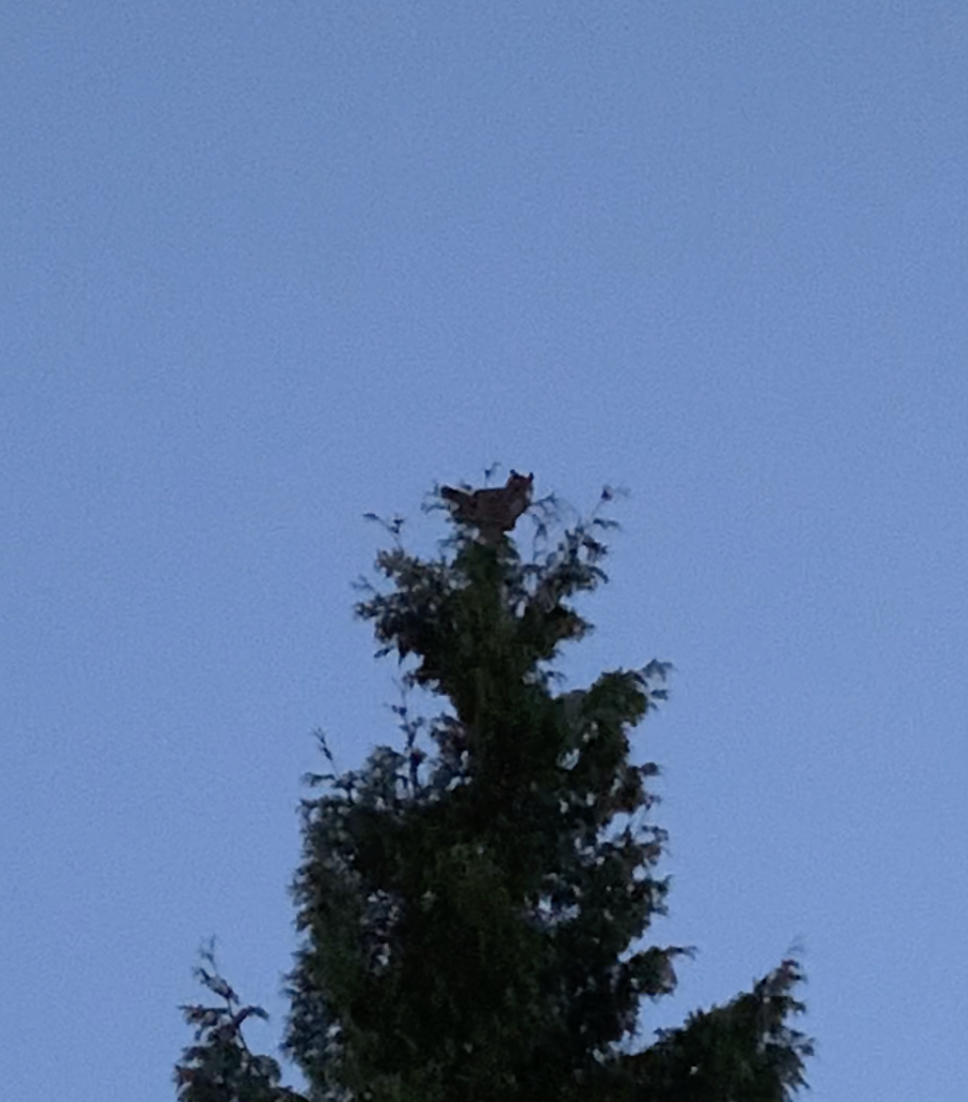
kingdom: Animalia
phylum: Chordata
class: Aves
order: Strigiformes
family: Strigidae
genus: Bubo
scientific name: Bubo virginianus
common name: Great horned owl
